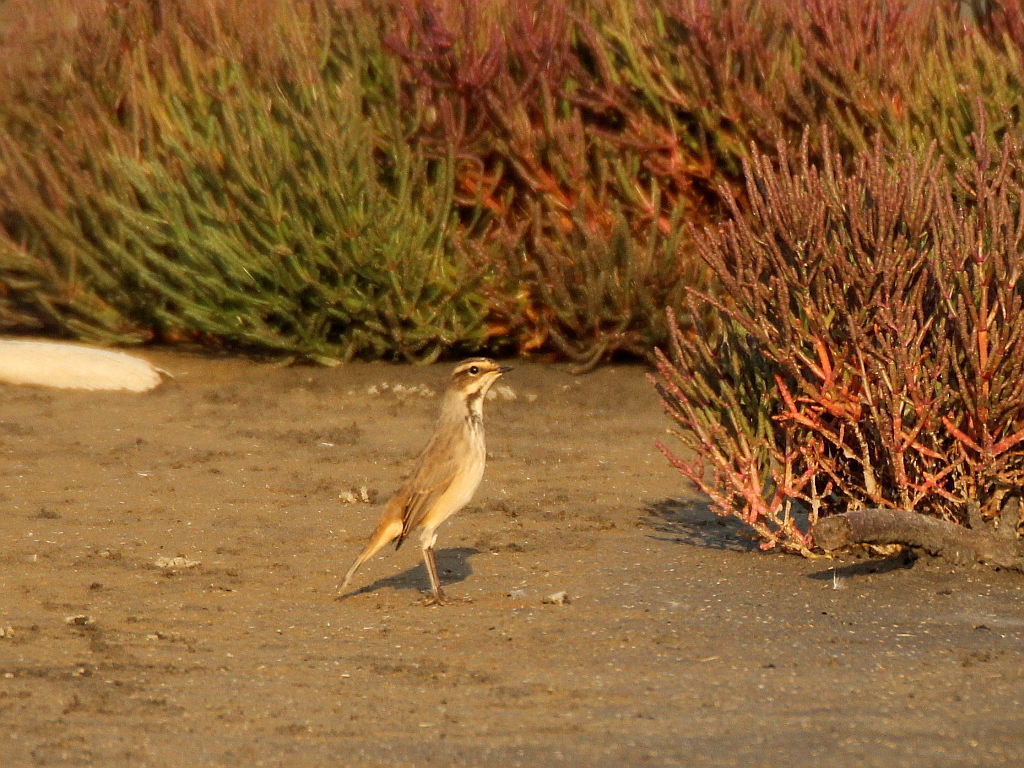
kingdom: Animalia
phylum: Chordata
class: Aves
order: Passeriformes
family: Muscicapidae
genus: Luscinia
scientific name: Luscinia svecica
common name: Bluethroat
